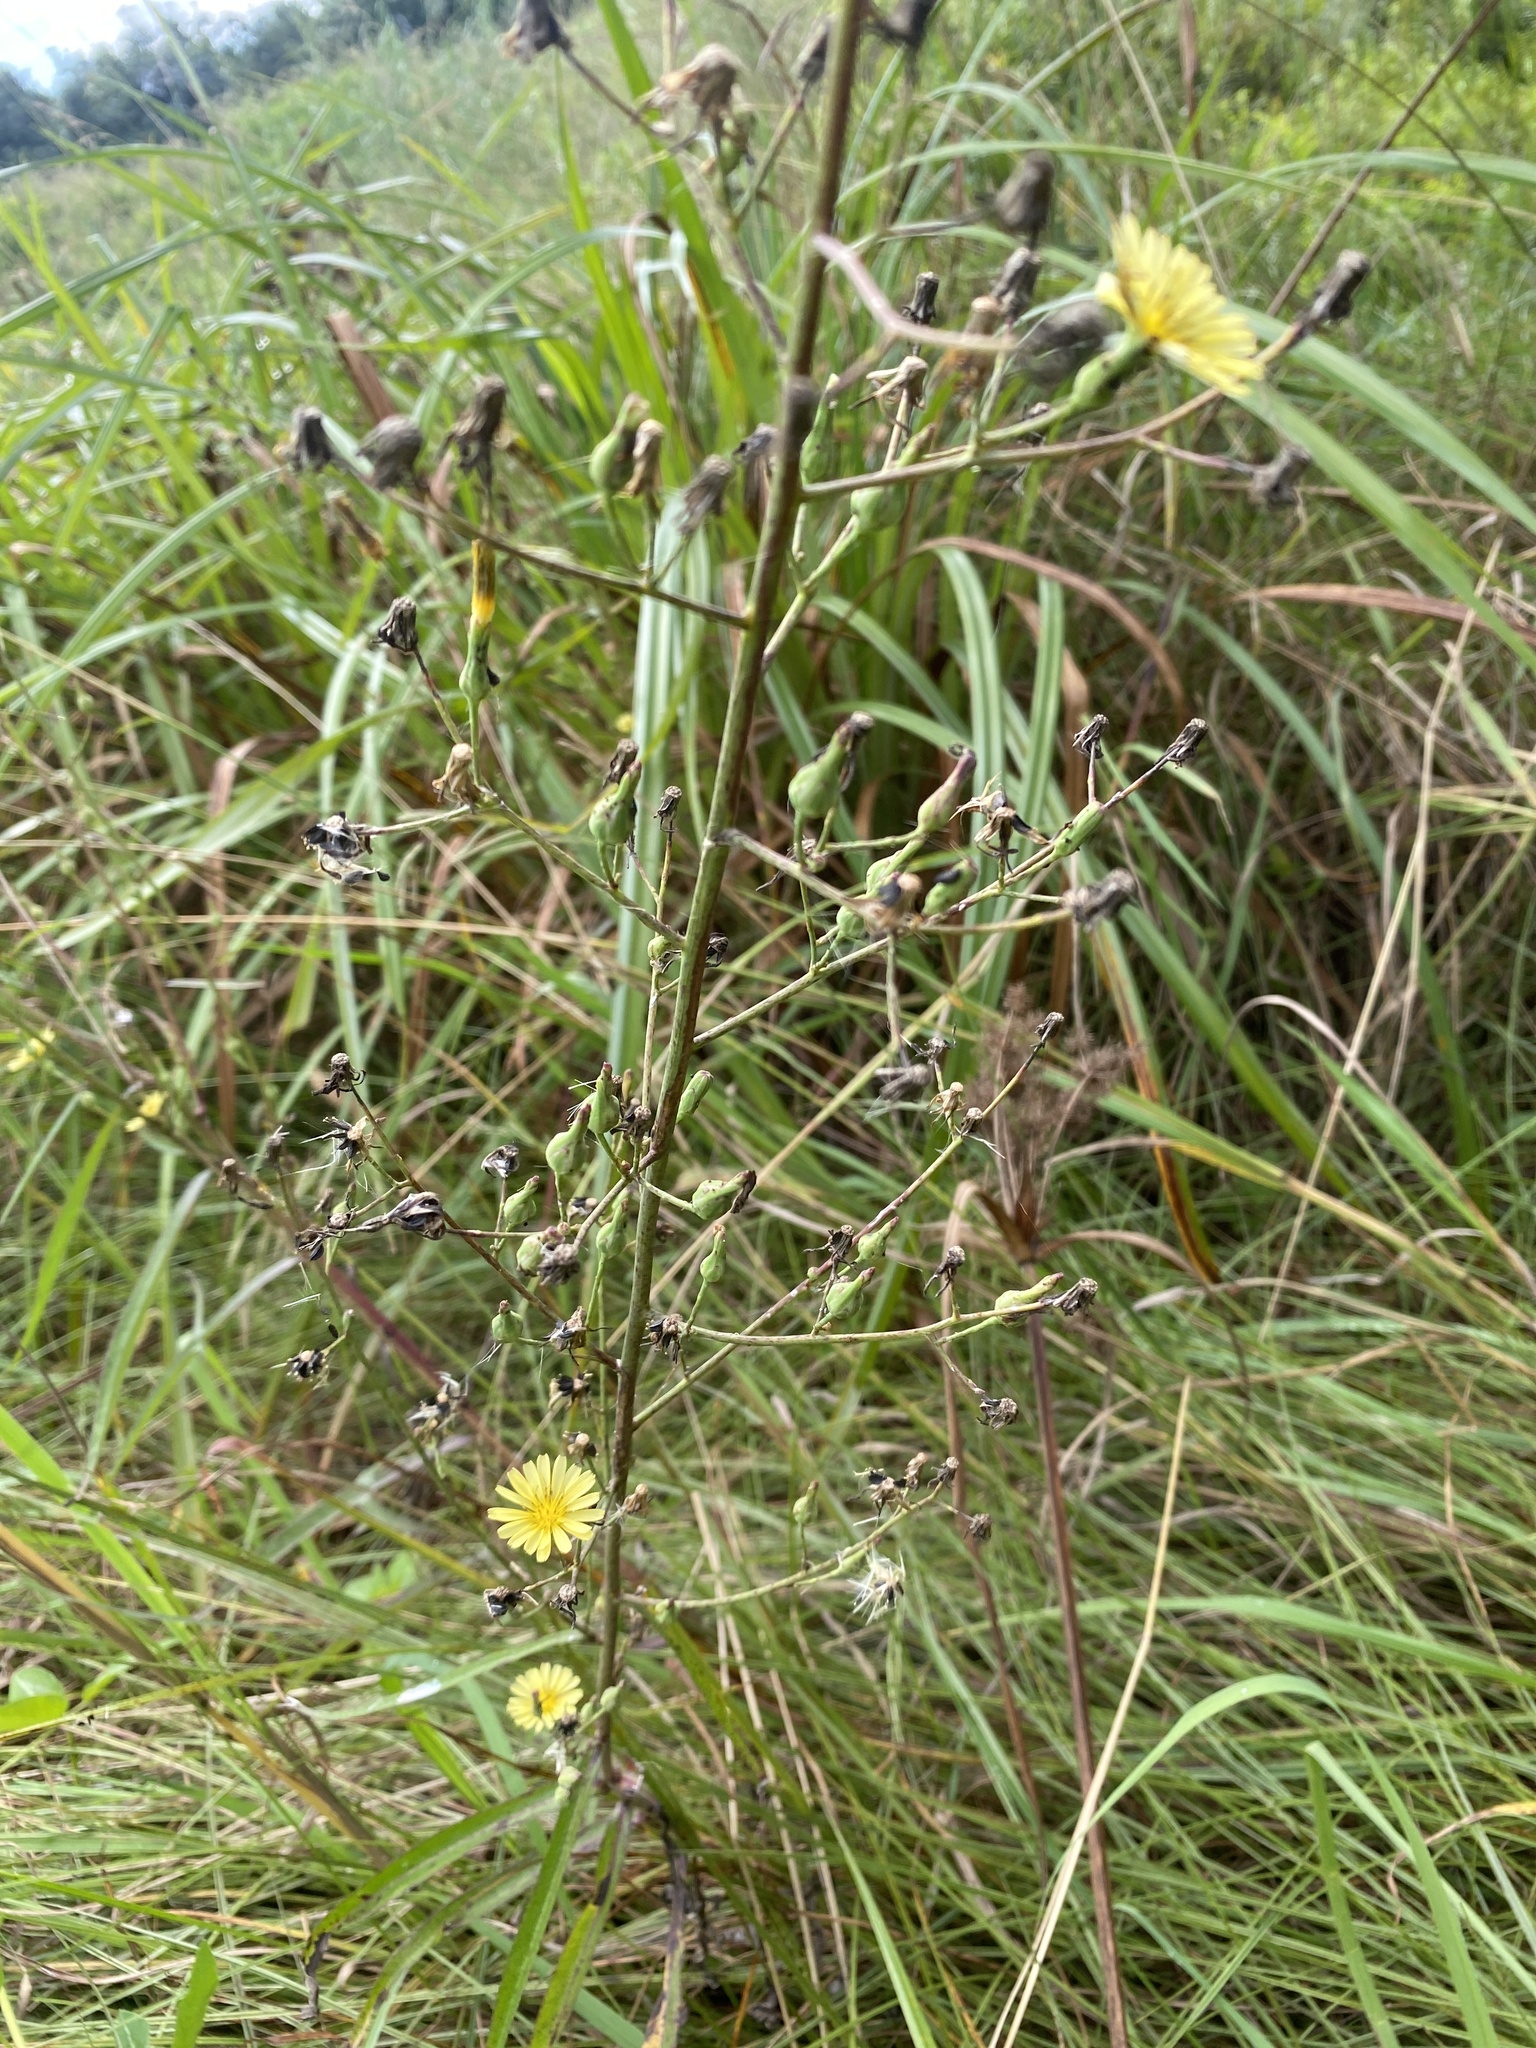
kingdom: Plantae
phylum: Tracheophyta
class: Magnoliopsida
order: Asterales
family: Asteraceae
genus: Lactuca
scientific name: Lactuca indica
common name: Wild lettuce
